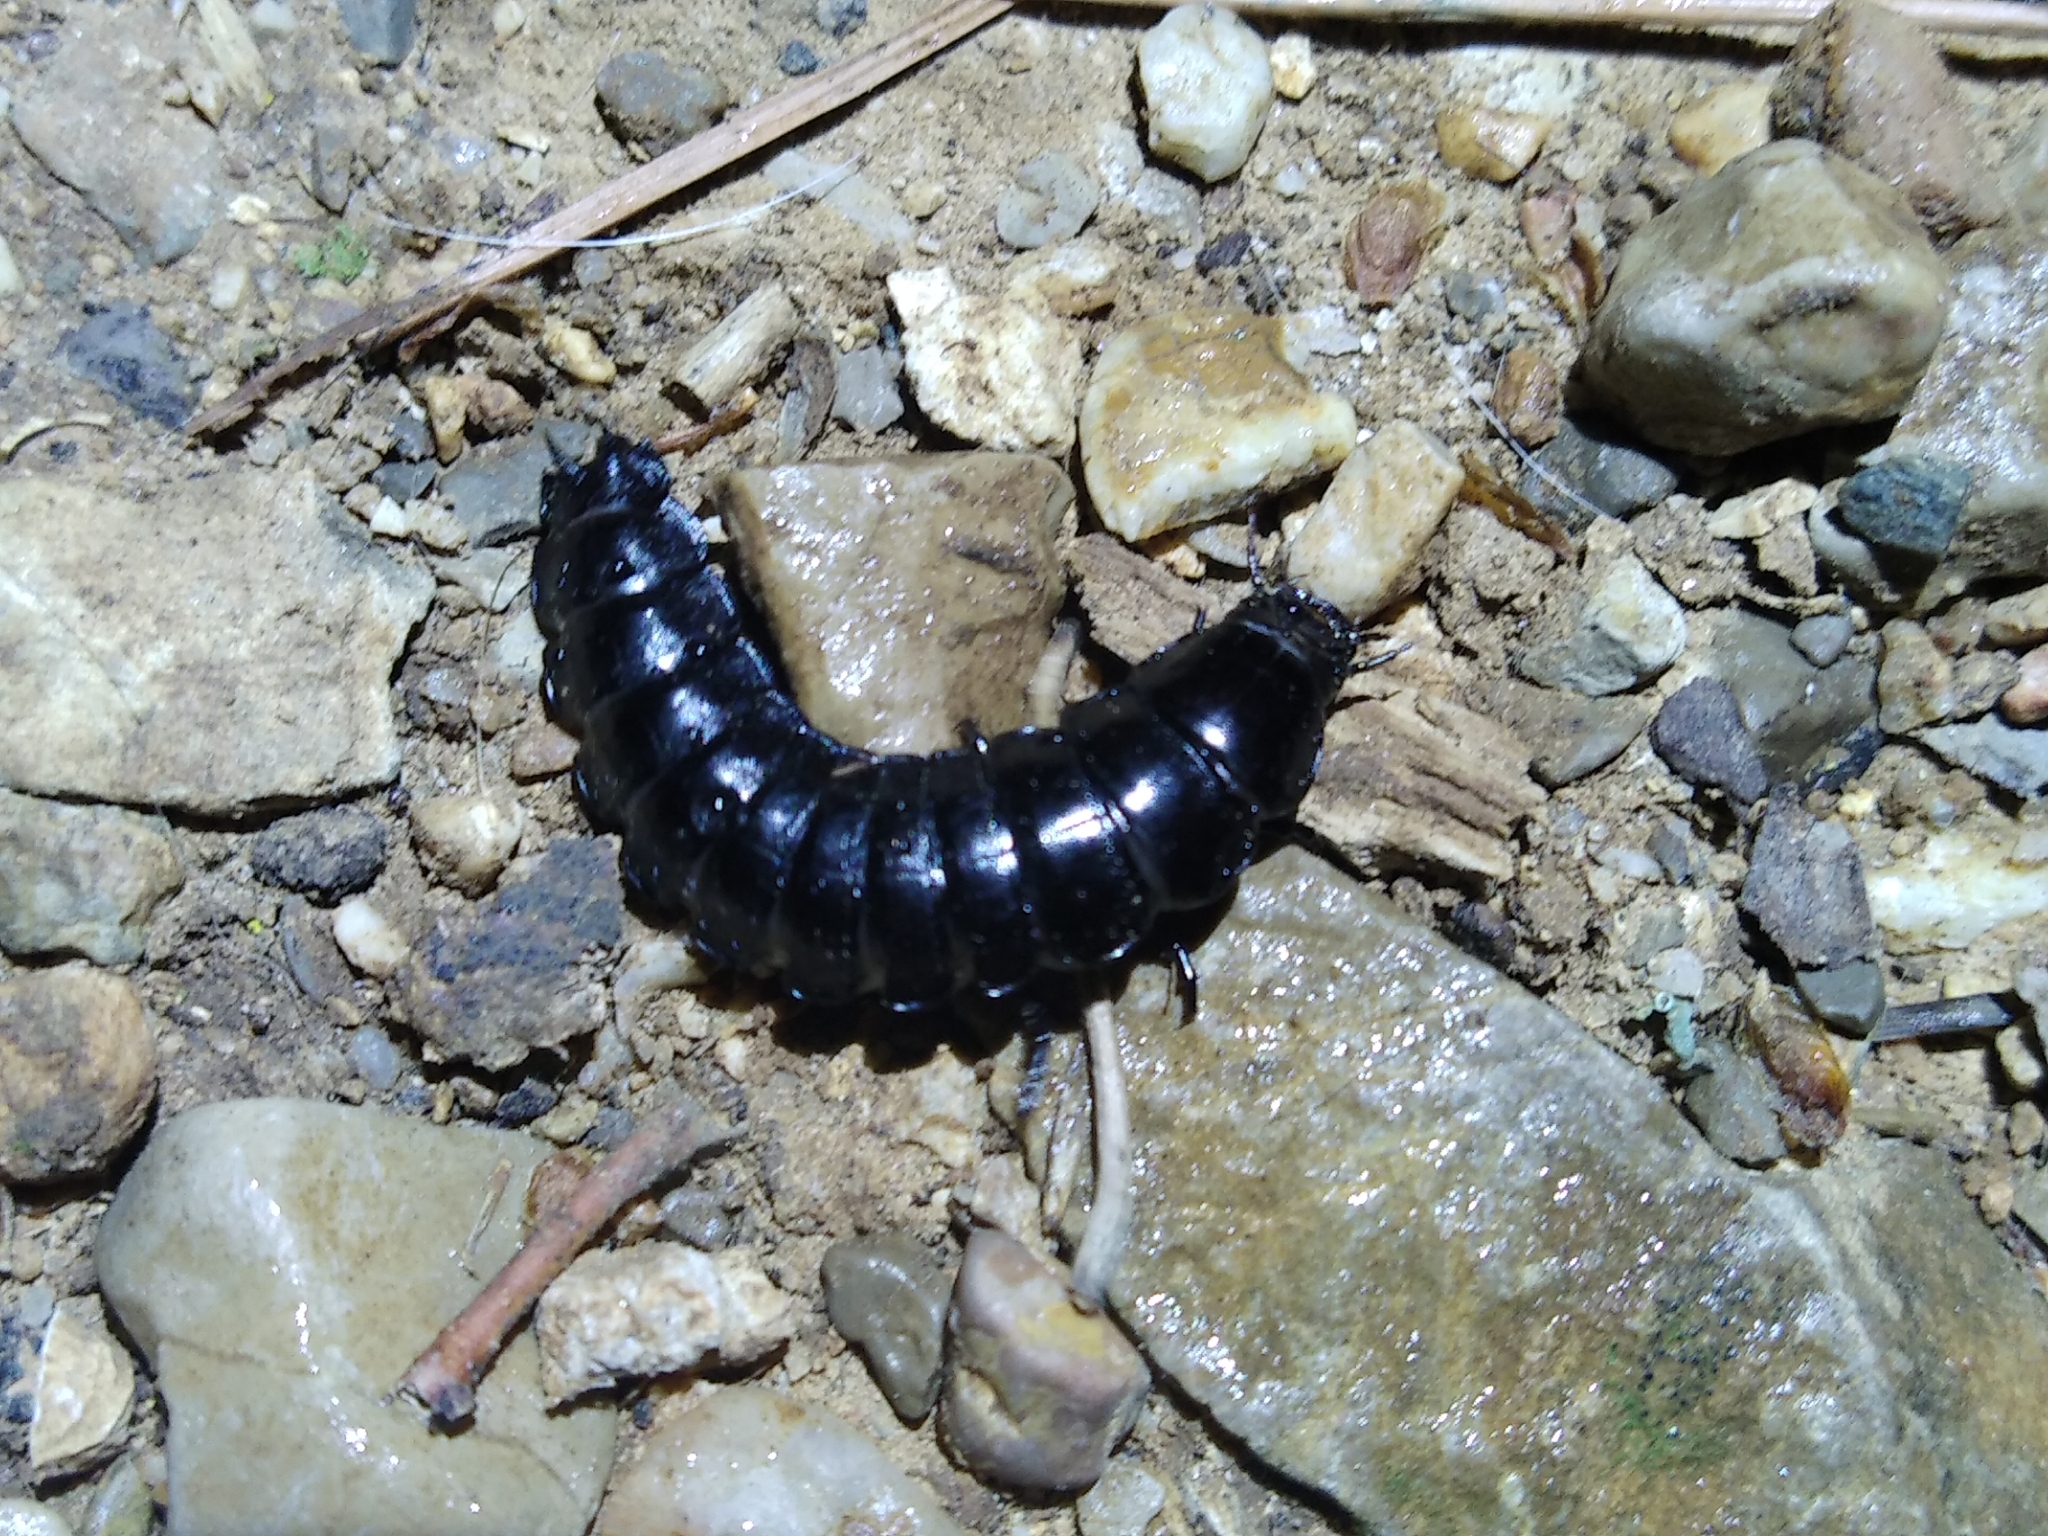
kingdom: Animalia
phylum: Arthropoda
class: Insecta
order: Coleoptera
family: Carabidae
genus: Carabus
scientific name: Carabus
